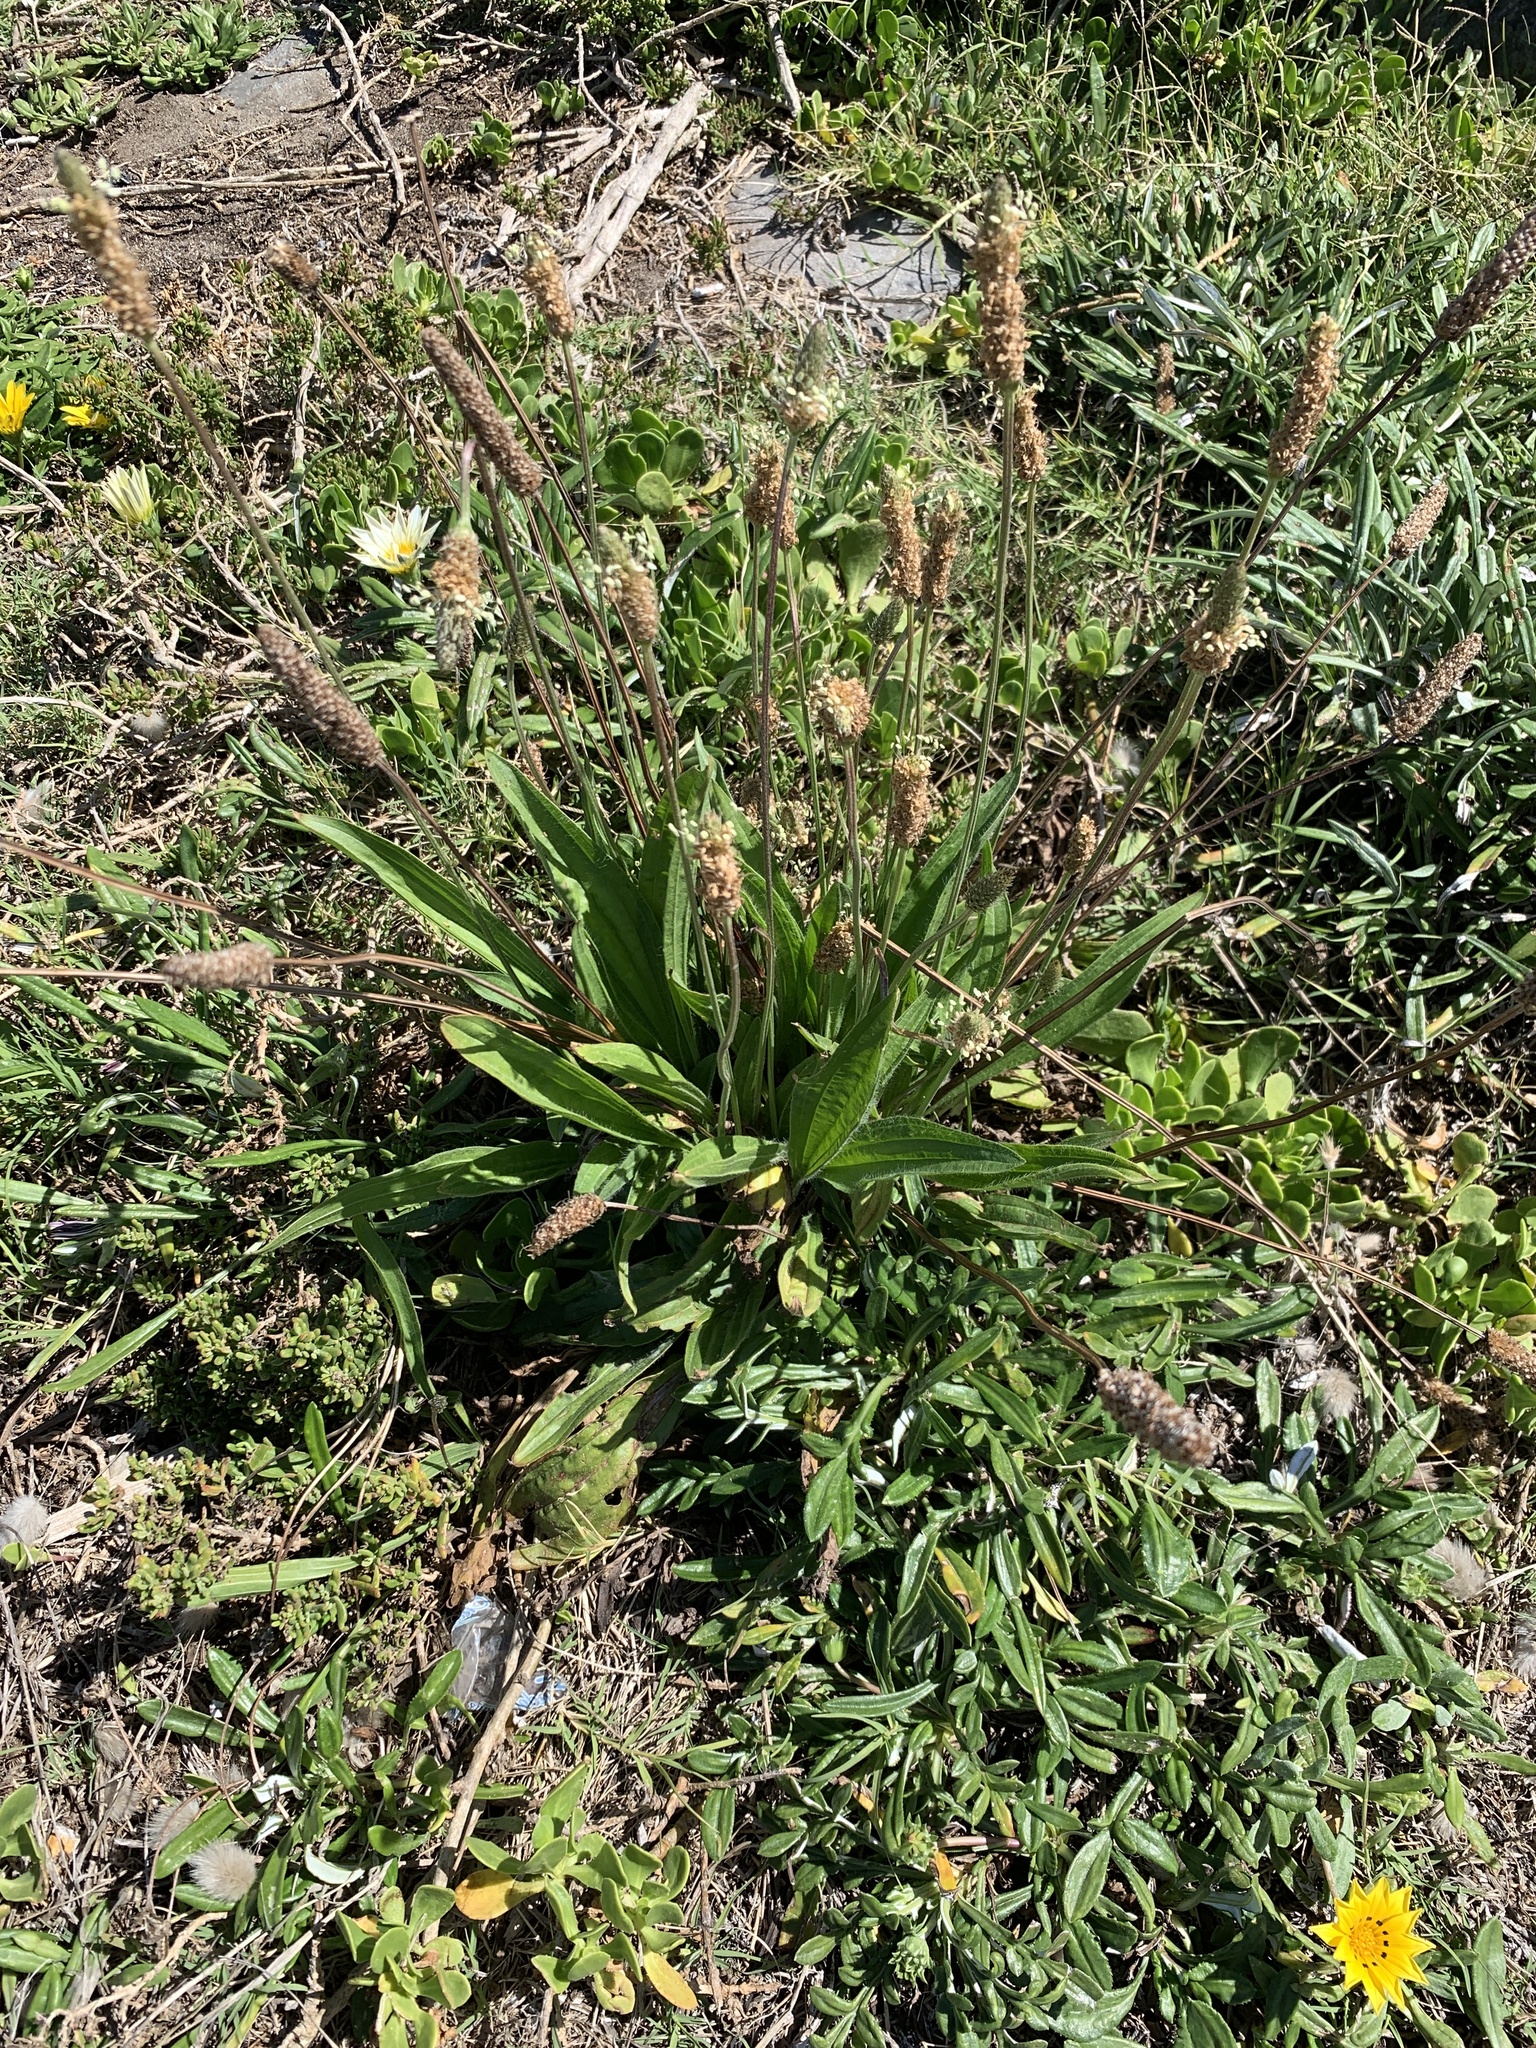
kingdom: Plantae
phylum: Tracheophyta
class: Magnoliopsida
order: Lamiales
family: Plantaginaceae
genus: Plantago
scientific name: Plantago lanceolata
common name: Ribwort plantain
